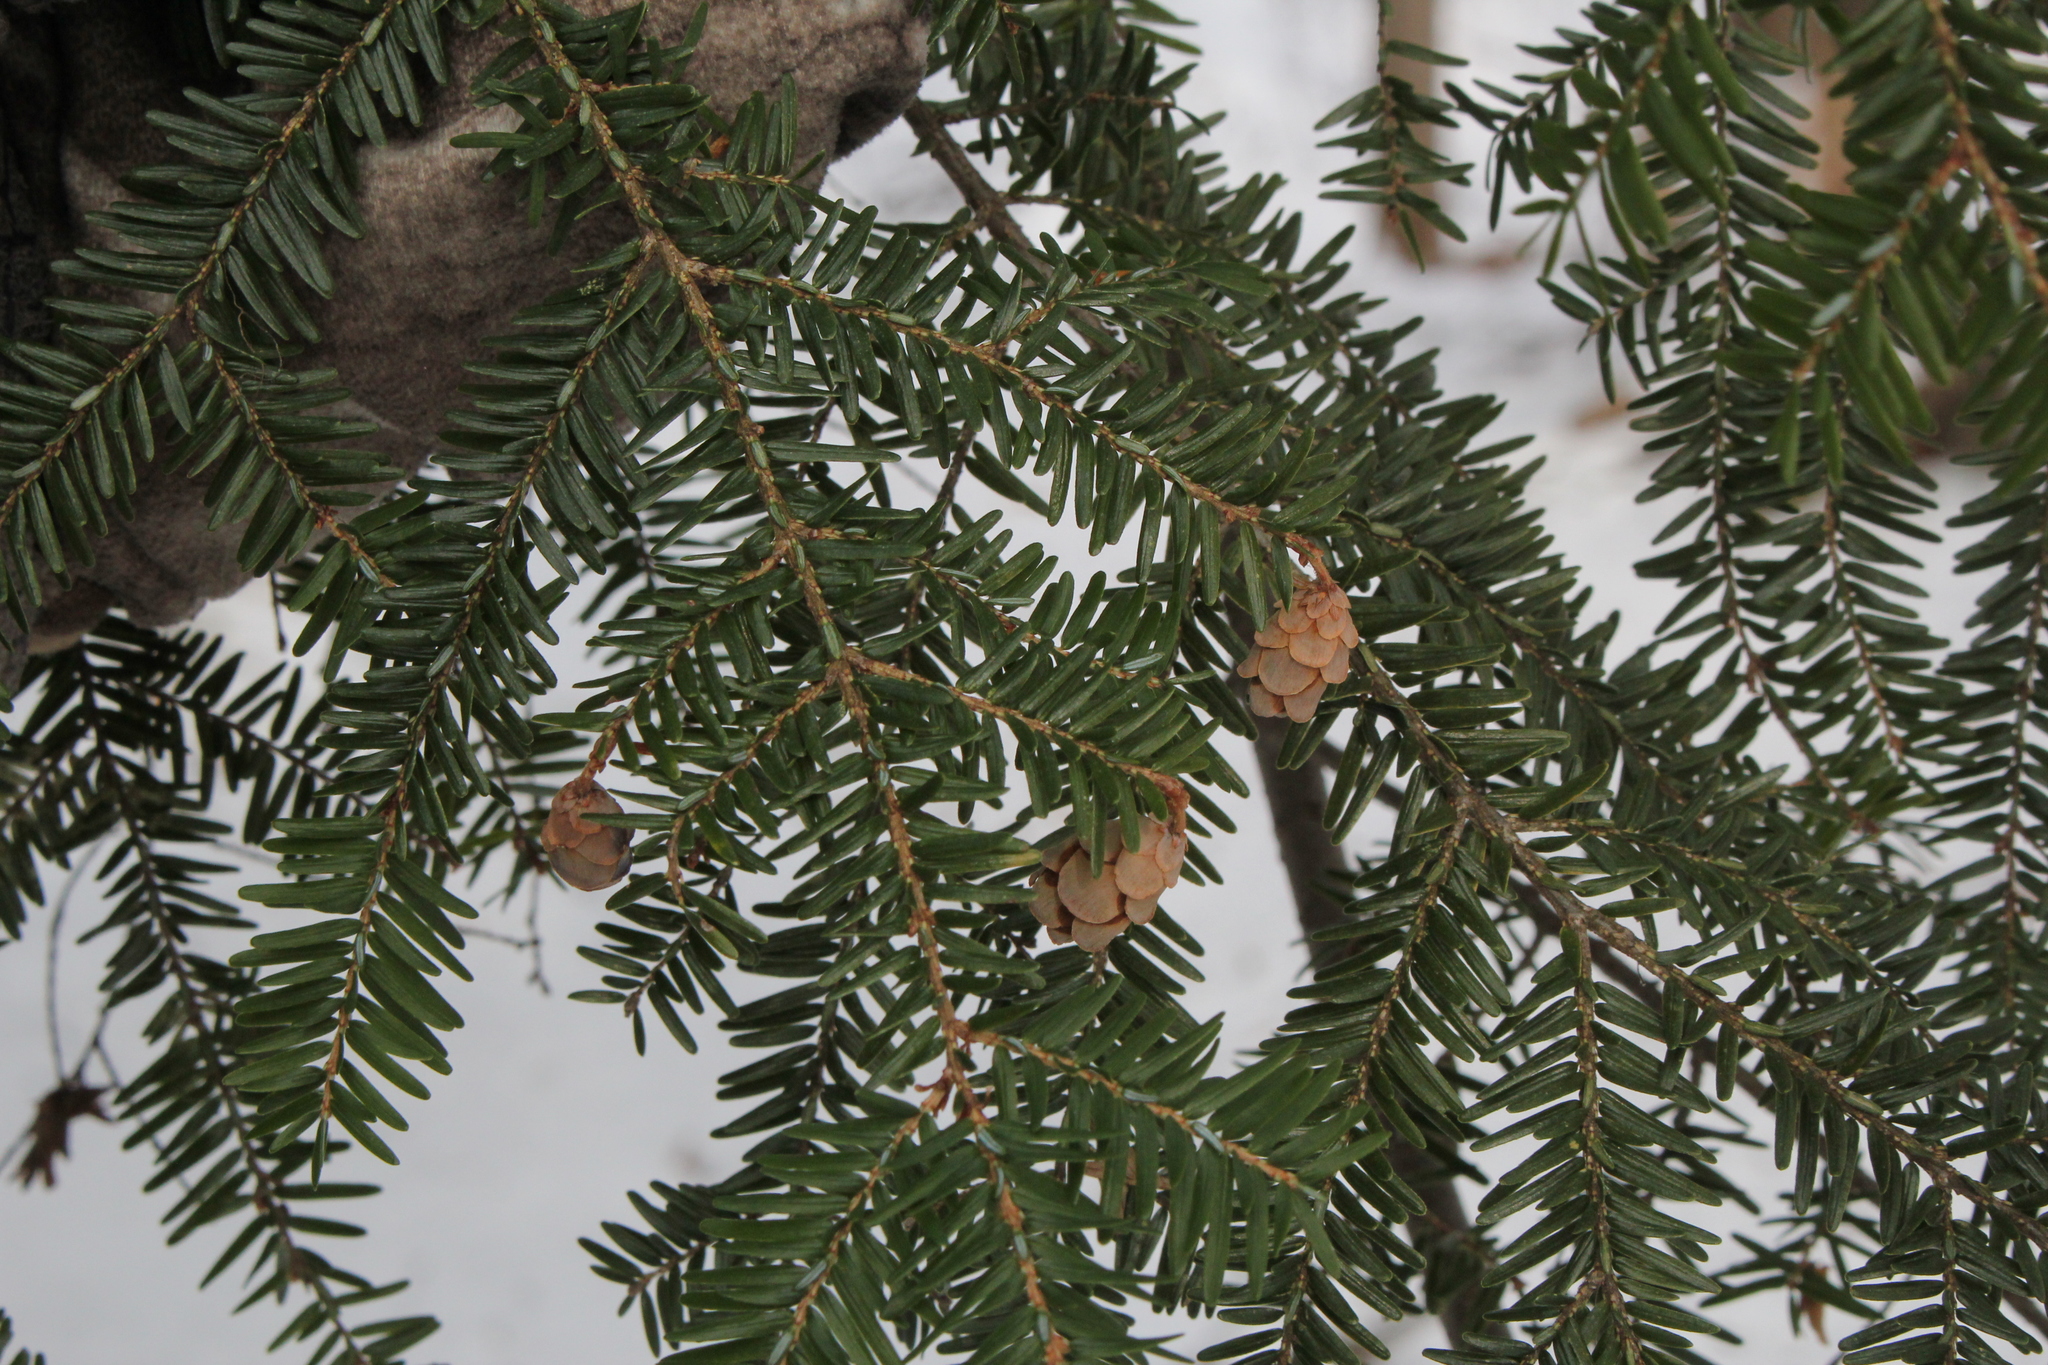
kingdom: Plantae
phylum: Tracheophyta
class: Pinopsida
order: Pinales
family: Pinaceae
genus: Tsuga
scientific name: Tsuga canadensis
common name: Eastern hemlock
